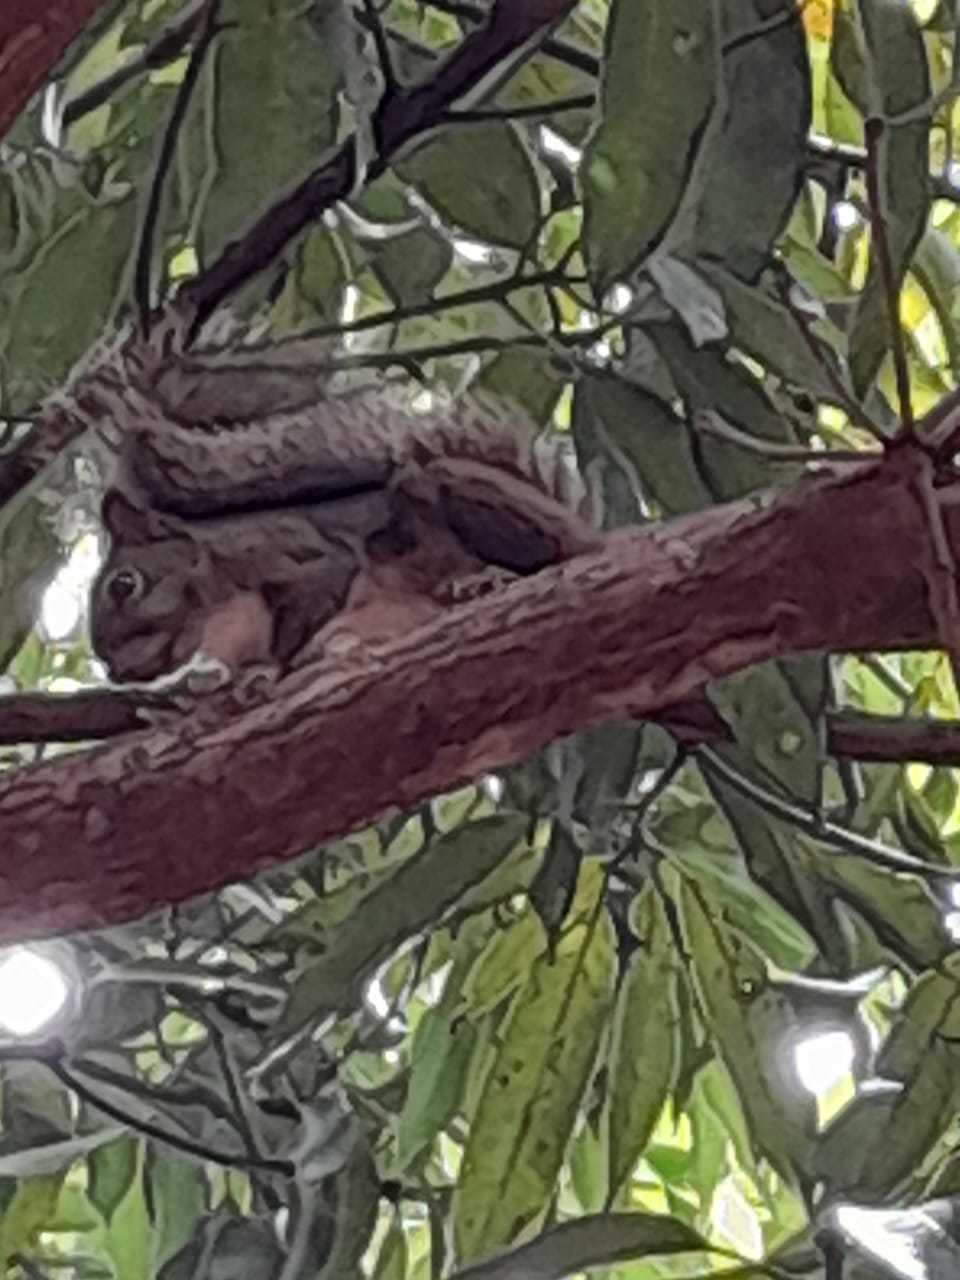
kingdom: Animalia
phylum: Chordata
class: Mammalia
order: Rodentia
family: Sciuridae
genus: Sciurus
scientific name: Sciurus aestuans
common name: Guianan squirrel
